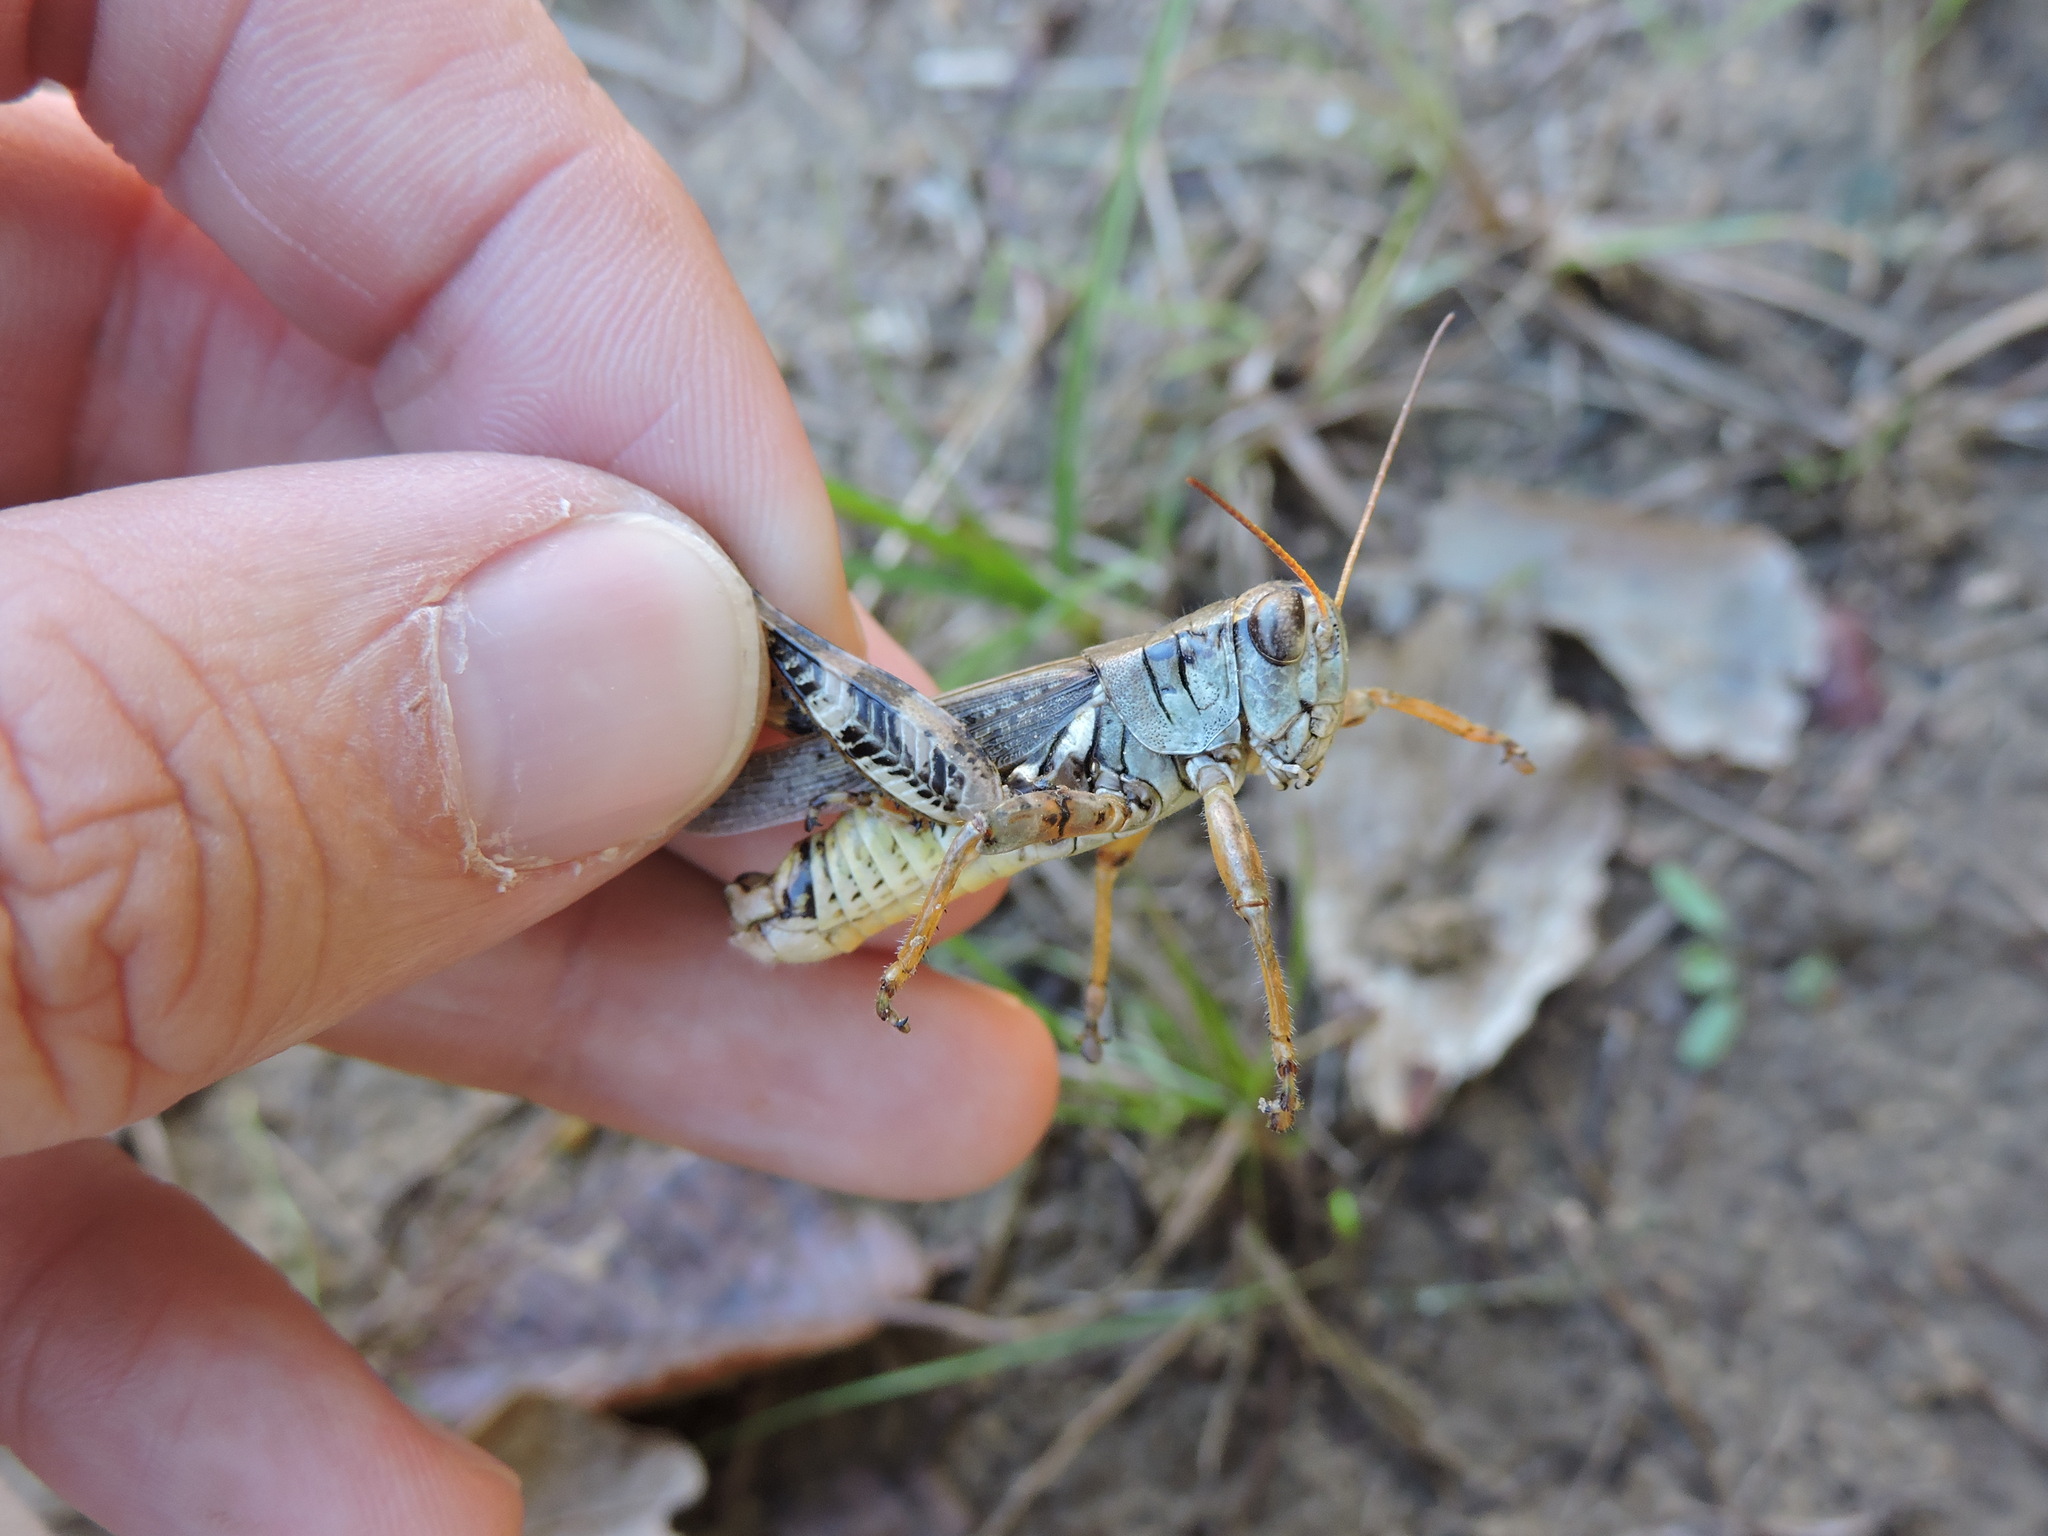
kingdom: Animalia
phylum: Arthropoda
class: Insecta
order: Orthoptera
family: Acrididae
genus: Melanoplus
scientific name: Melanoplus ponderosus
